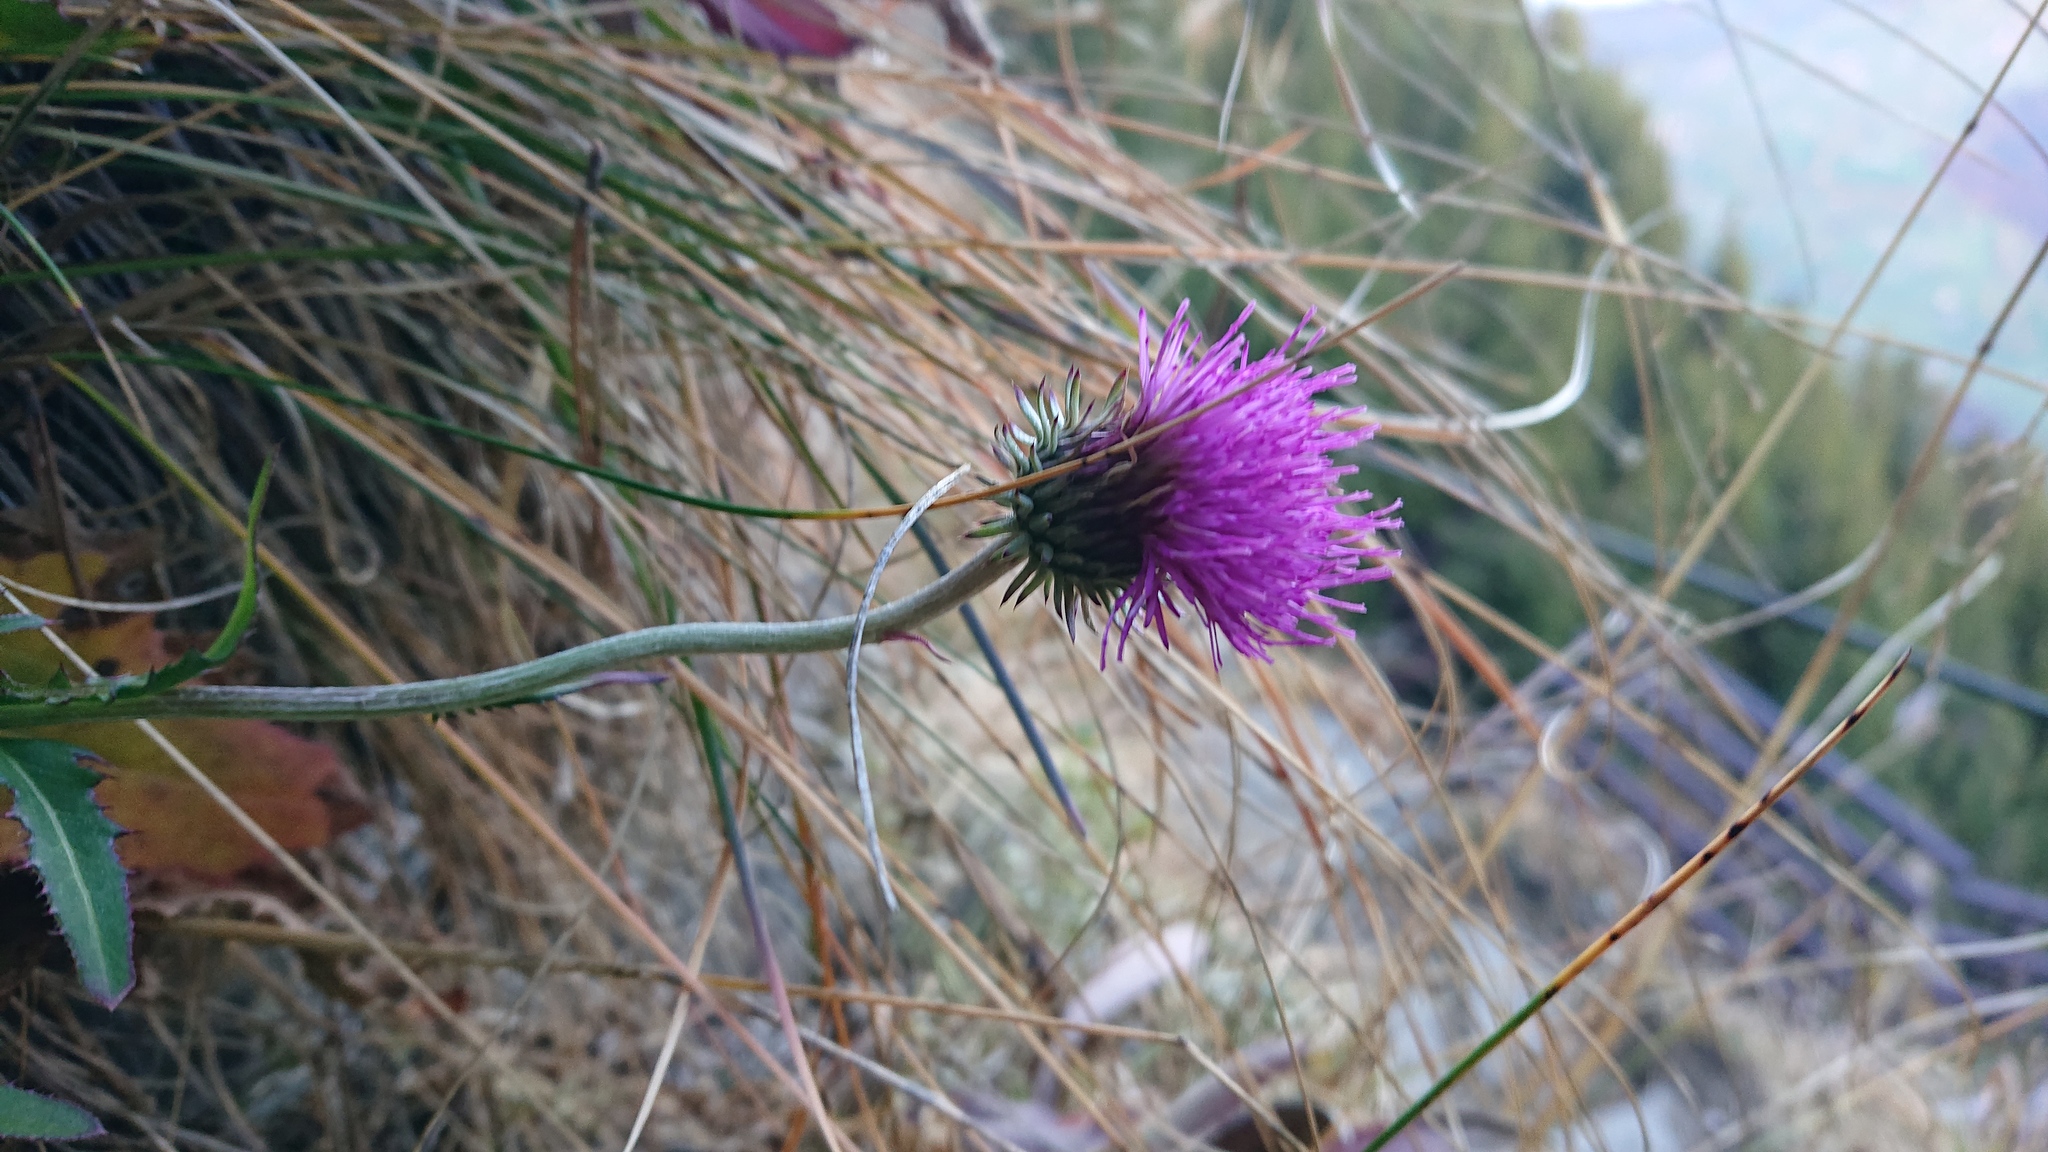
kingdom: Plantae
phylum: Tracheophyta
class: Magnoliopsida
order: Asterales
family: Asteraceae
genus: Carduus
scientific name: Carduus defloratus
